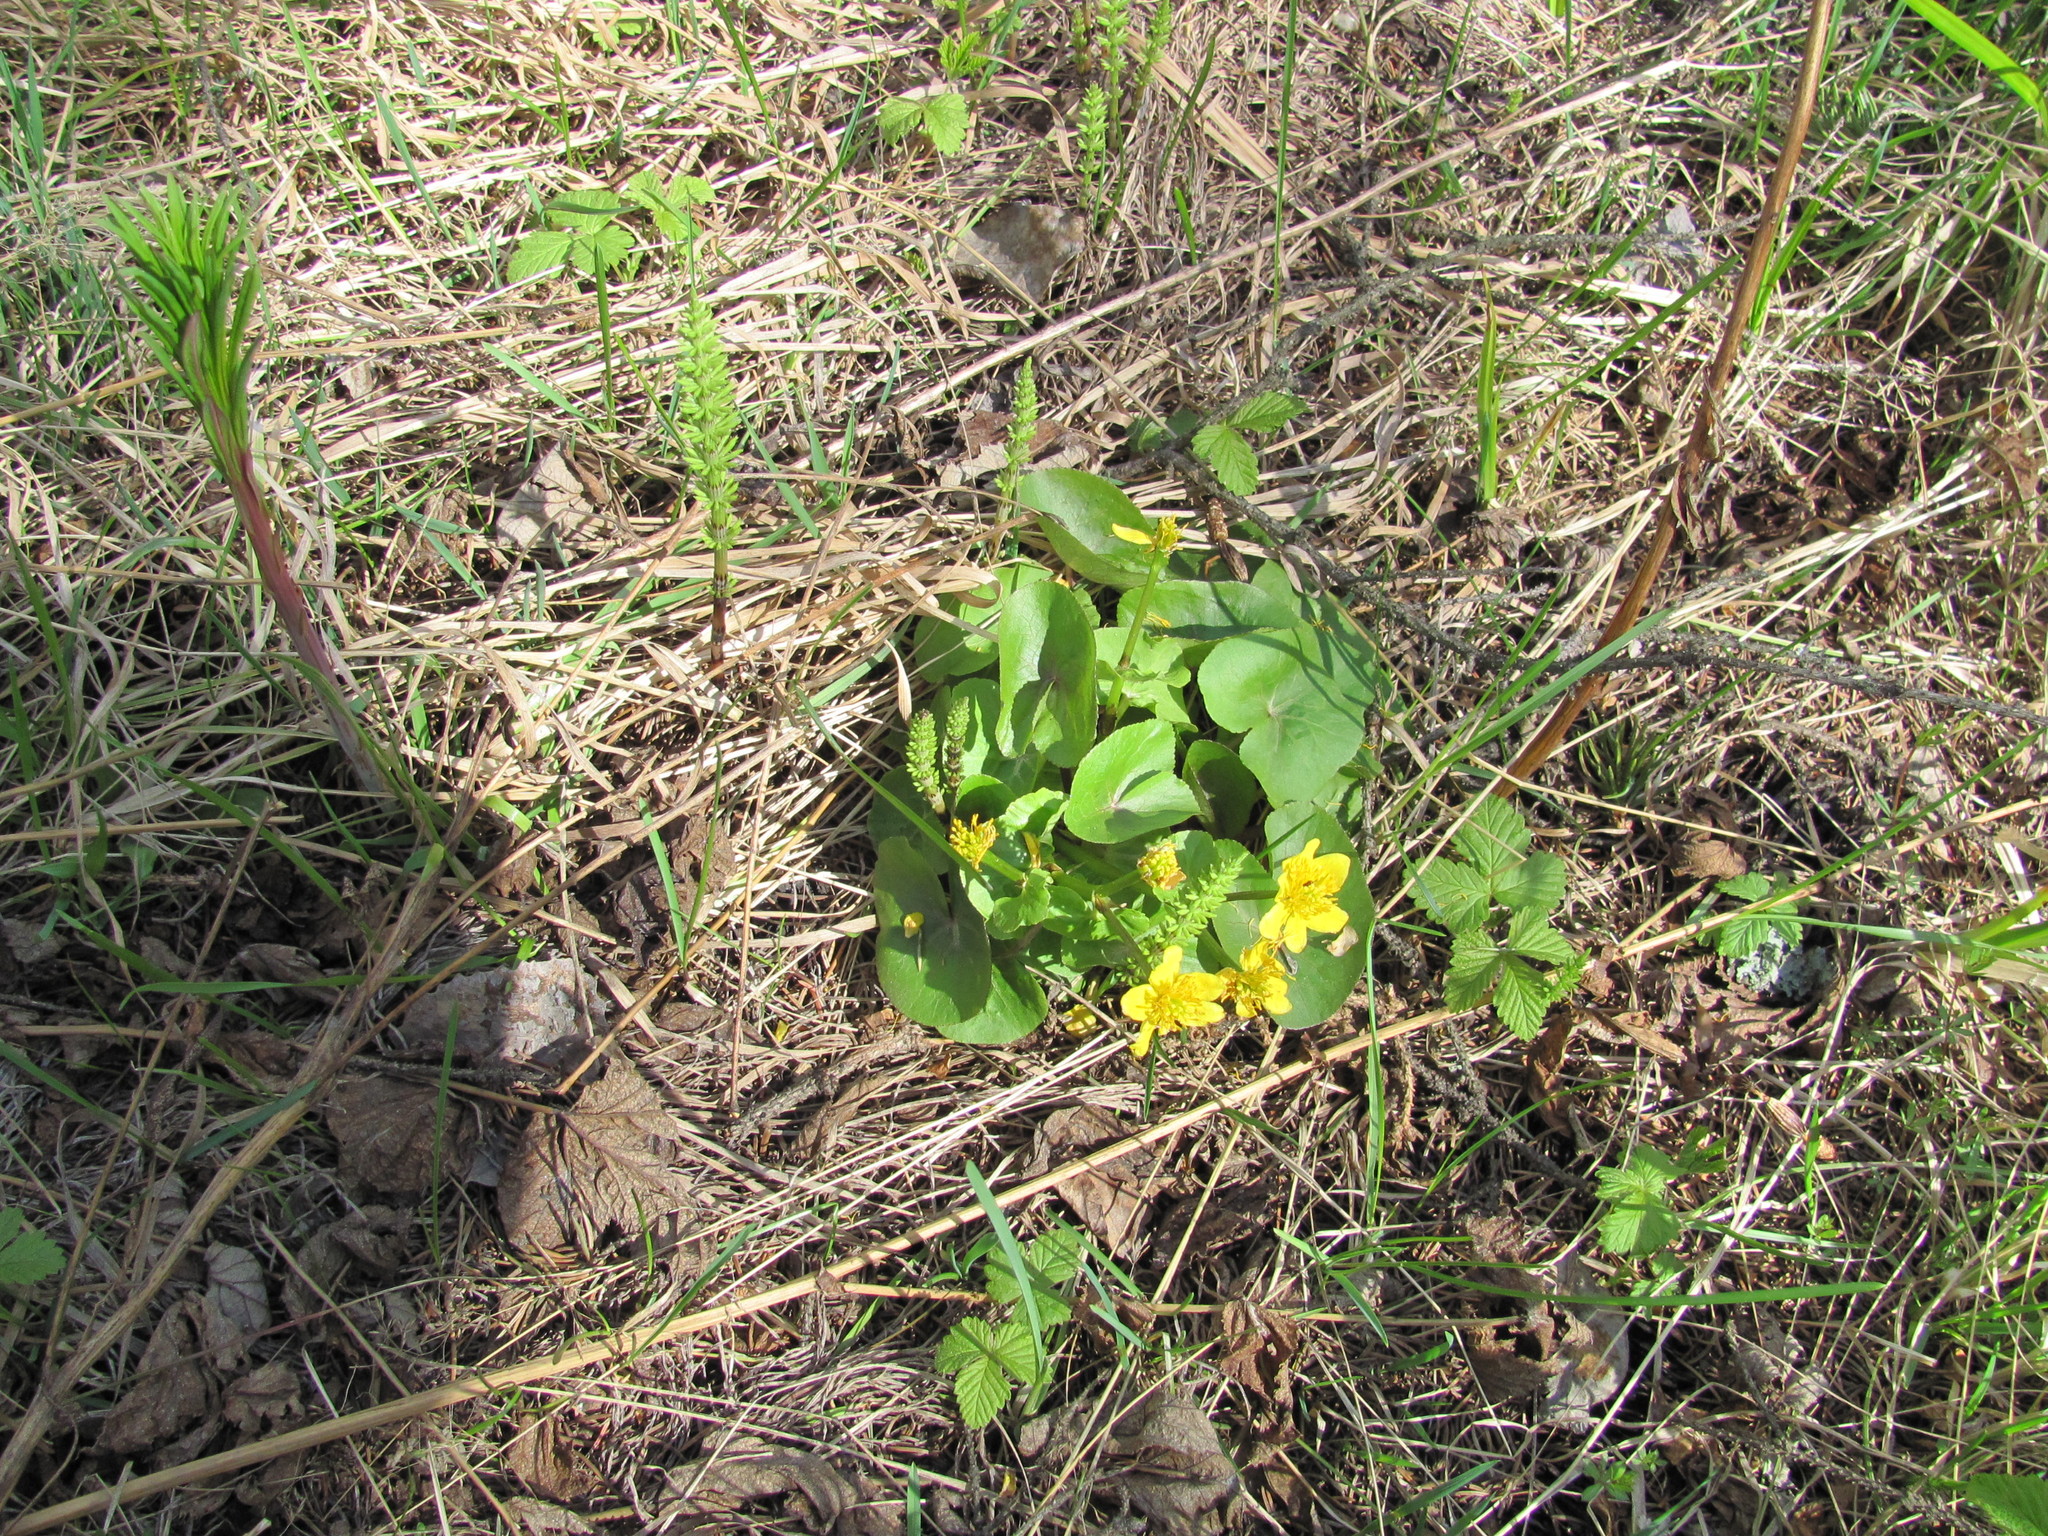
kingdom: Plantae
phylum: Tracheophyta
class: Magnoliopsida
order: Ranunculales
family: Ranunculaceae
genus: Caltha
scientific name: Caltha palustris
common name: Marsh marigold
